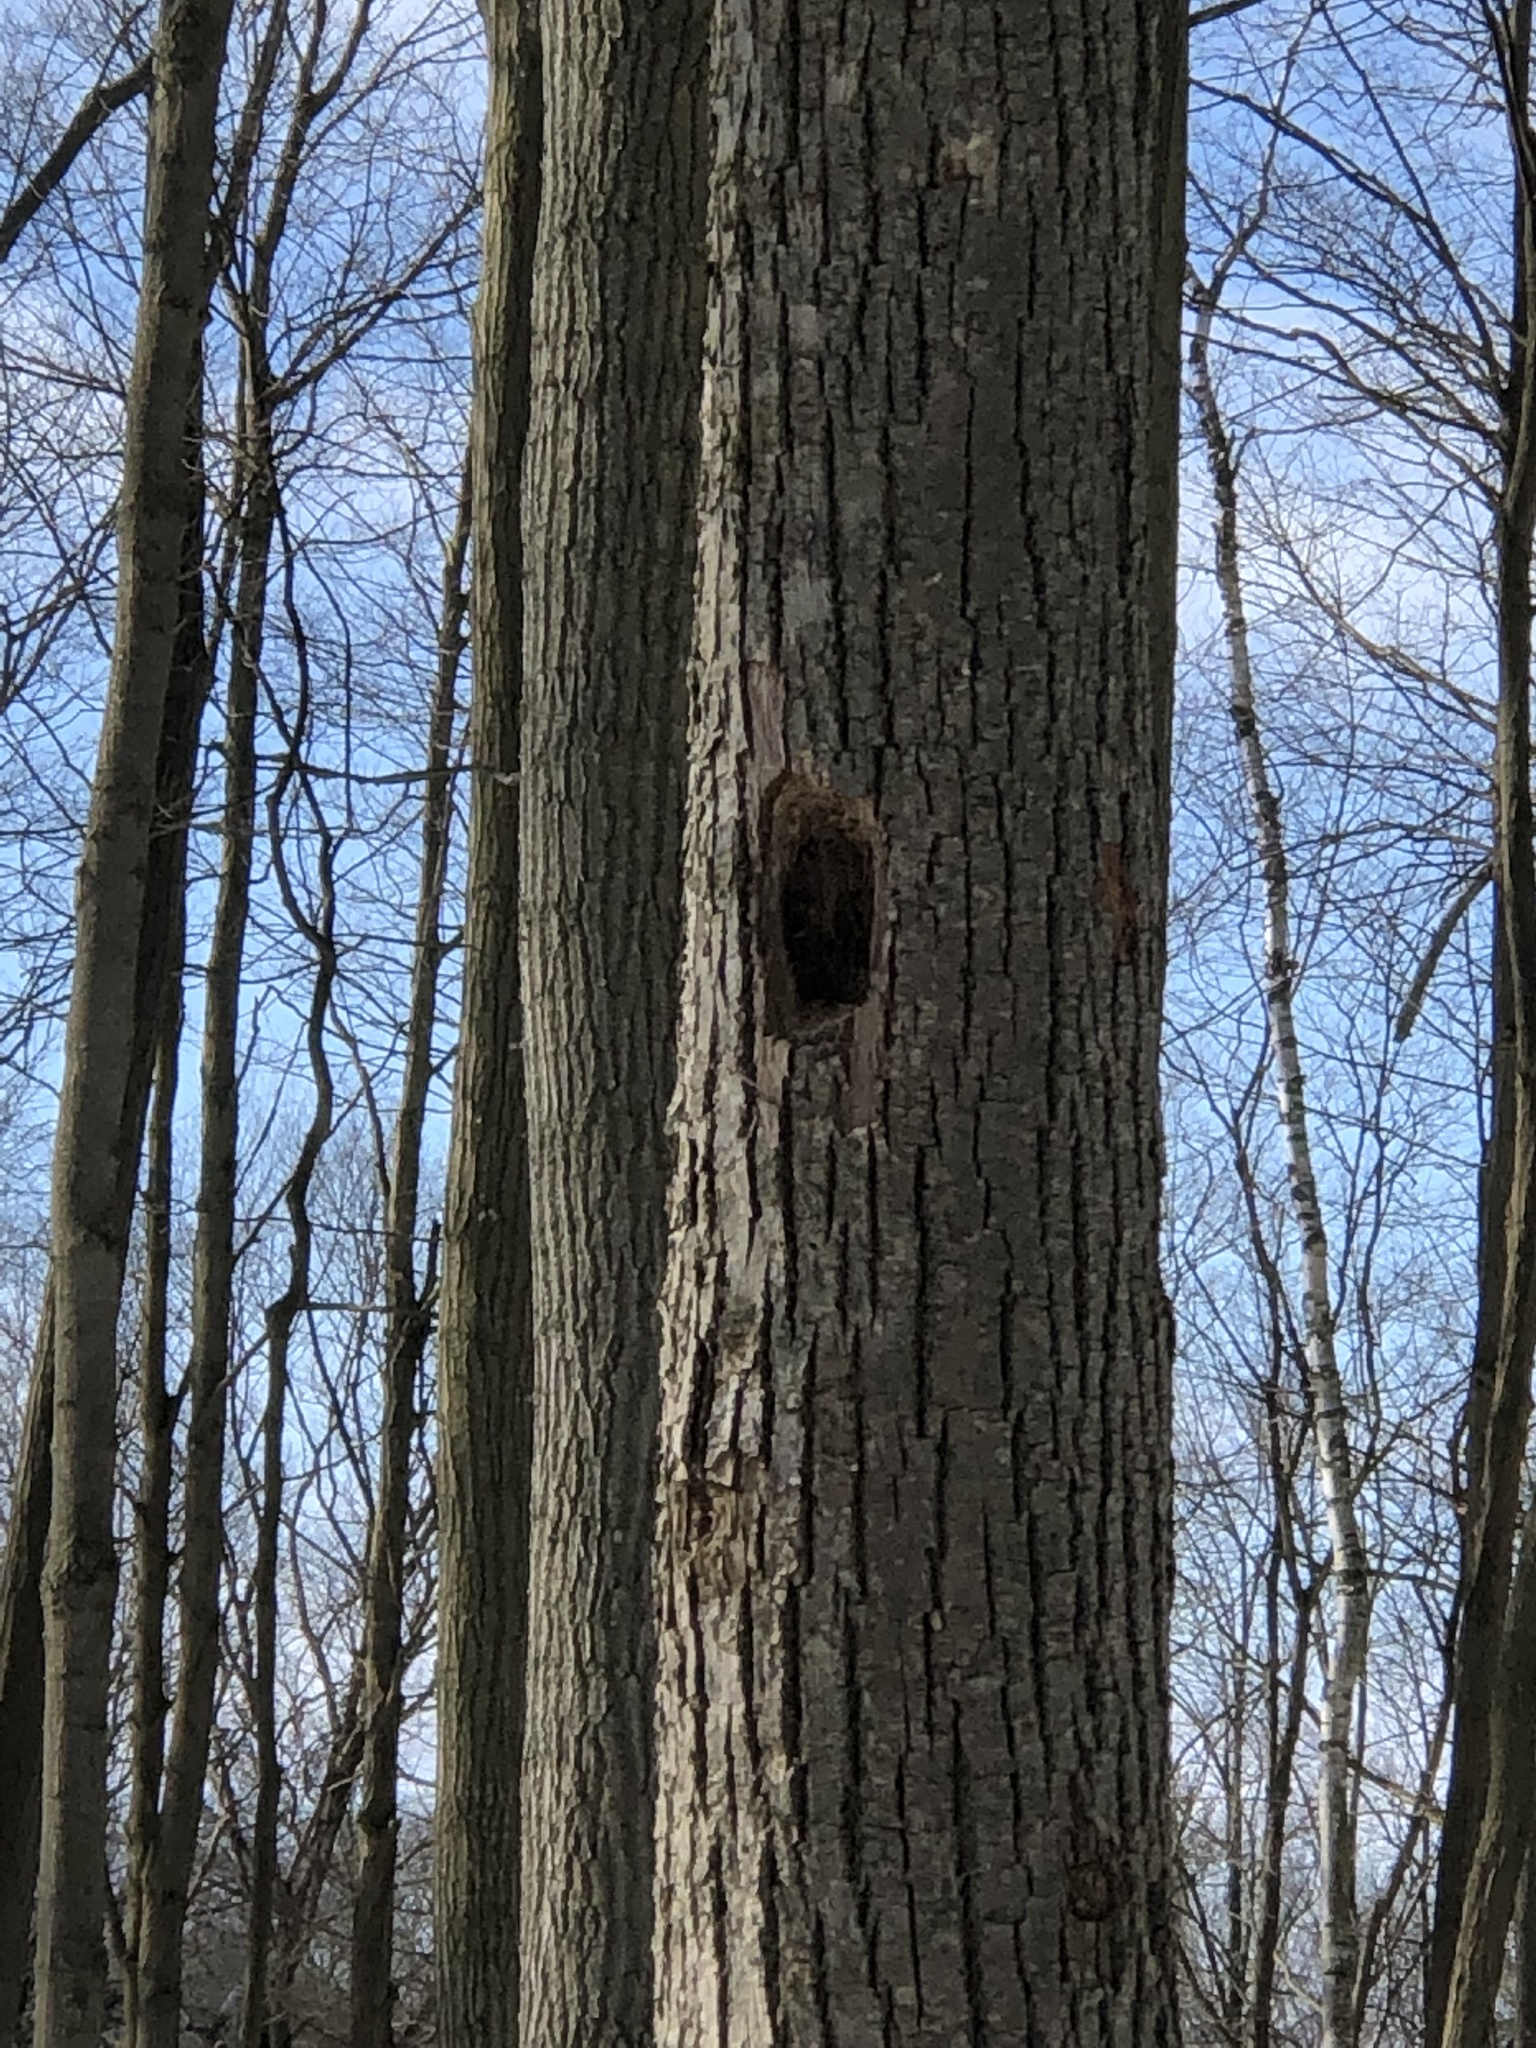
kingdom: Animalia
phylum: Chordata
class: Aves
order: Piciformes
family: Picidae
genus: Dryocopus
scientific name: Dryocopus pileatus
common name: Pileated woodpecker
